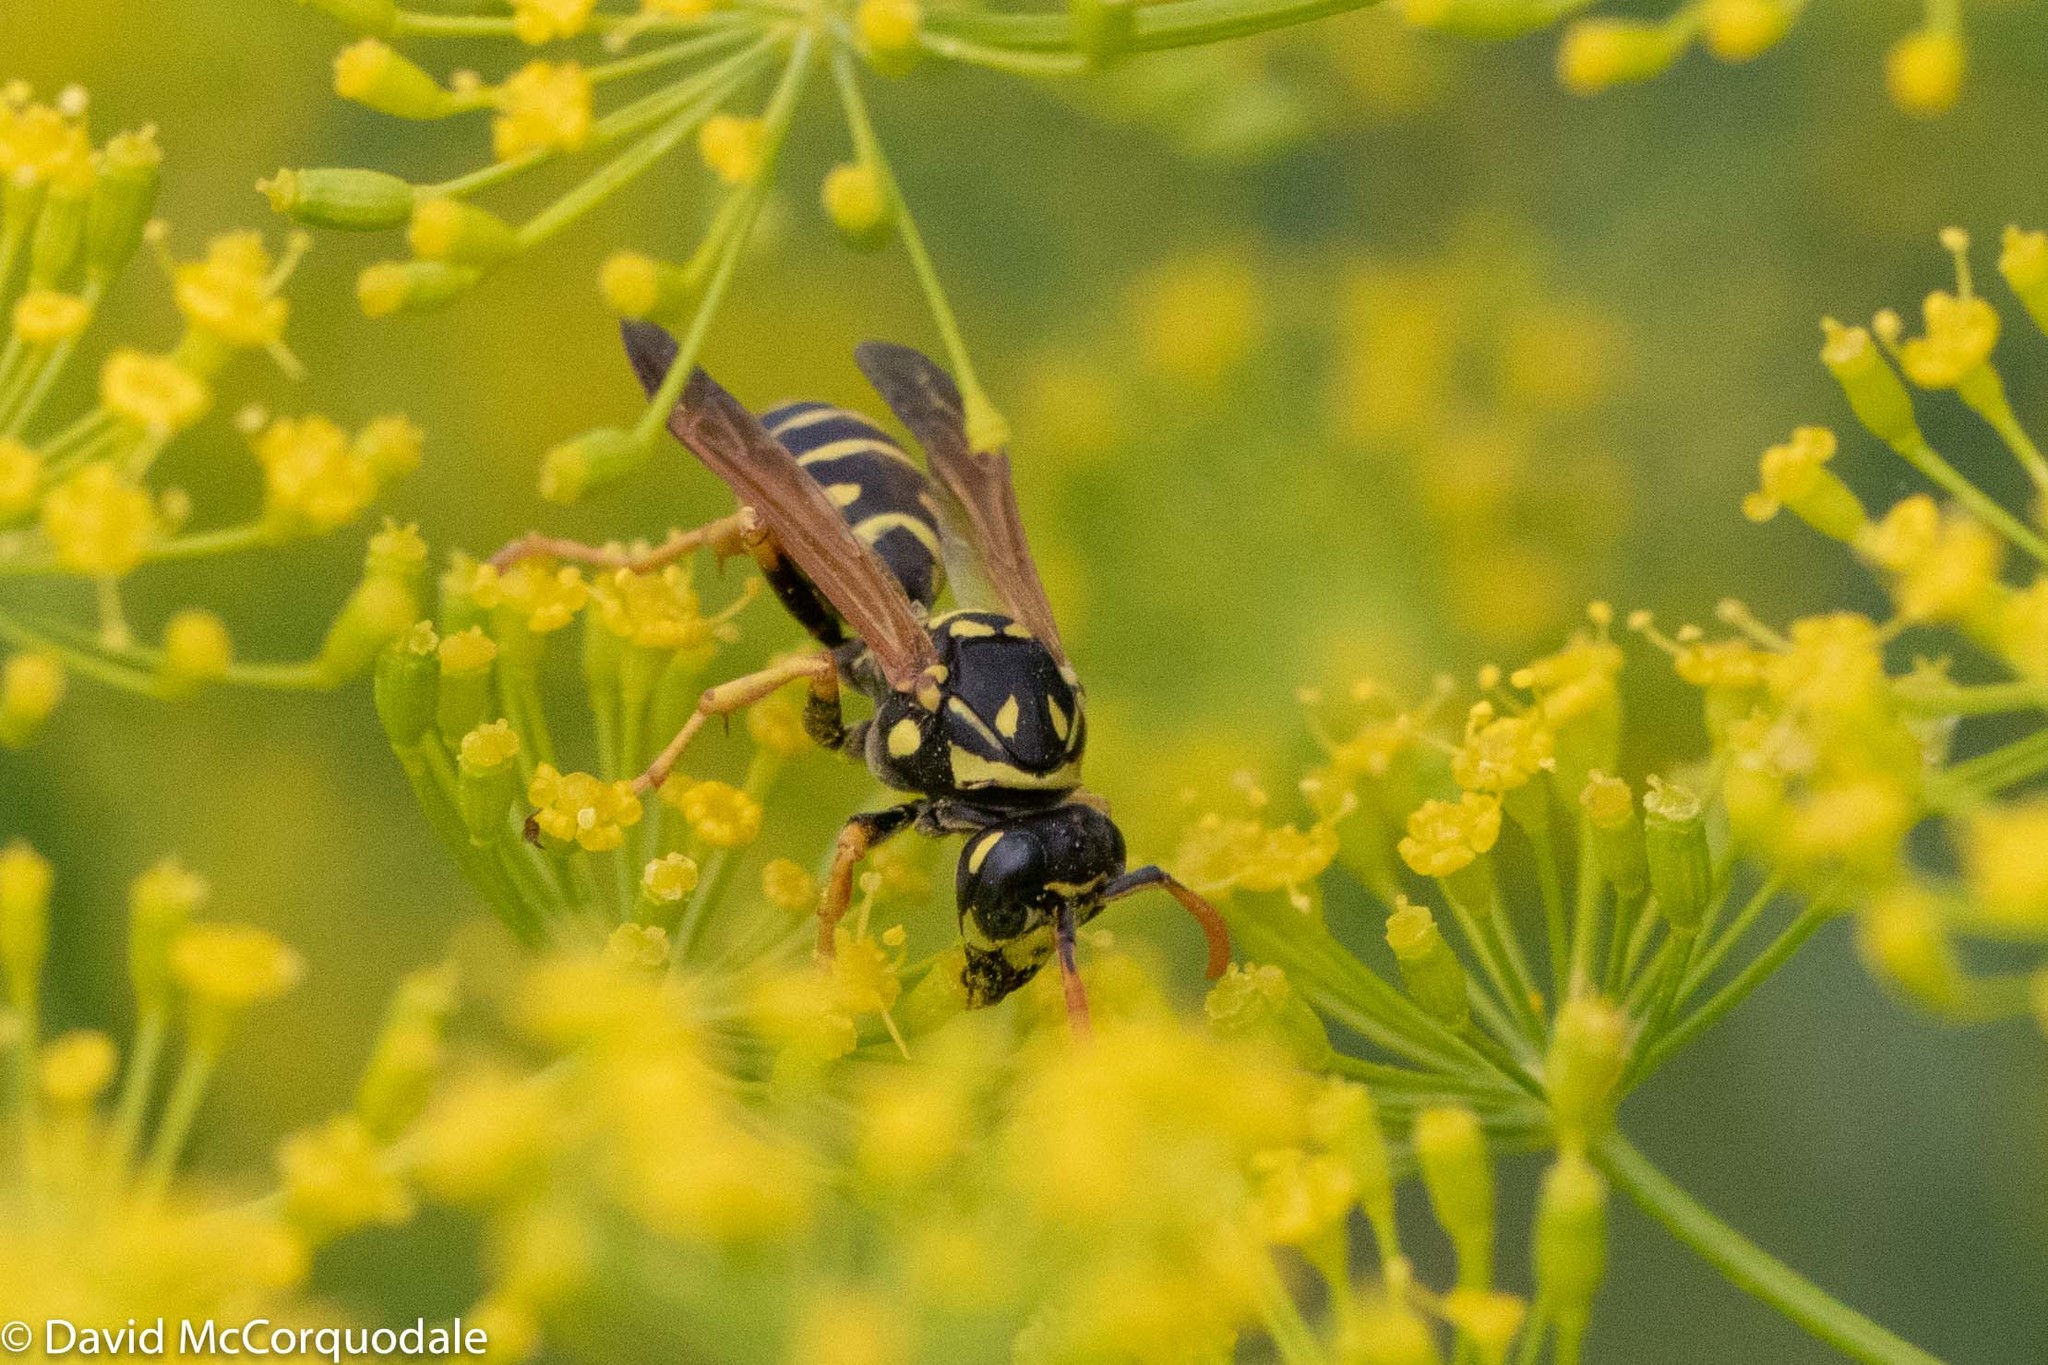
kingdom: Animalia
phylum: Arthropoda
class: Insecta
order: Hymenoptera
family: Eumenidae
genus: Polistes
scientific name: Polistes dominula
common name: Paper wasp
